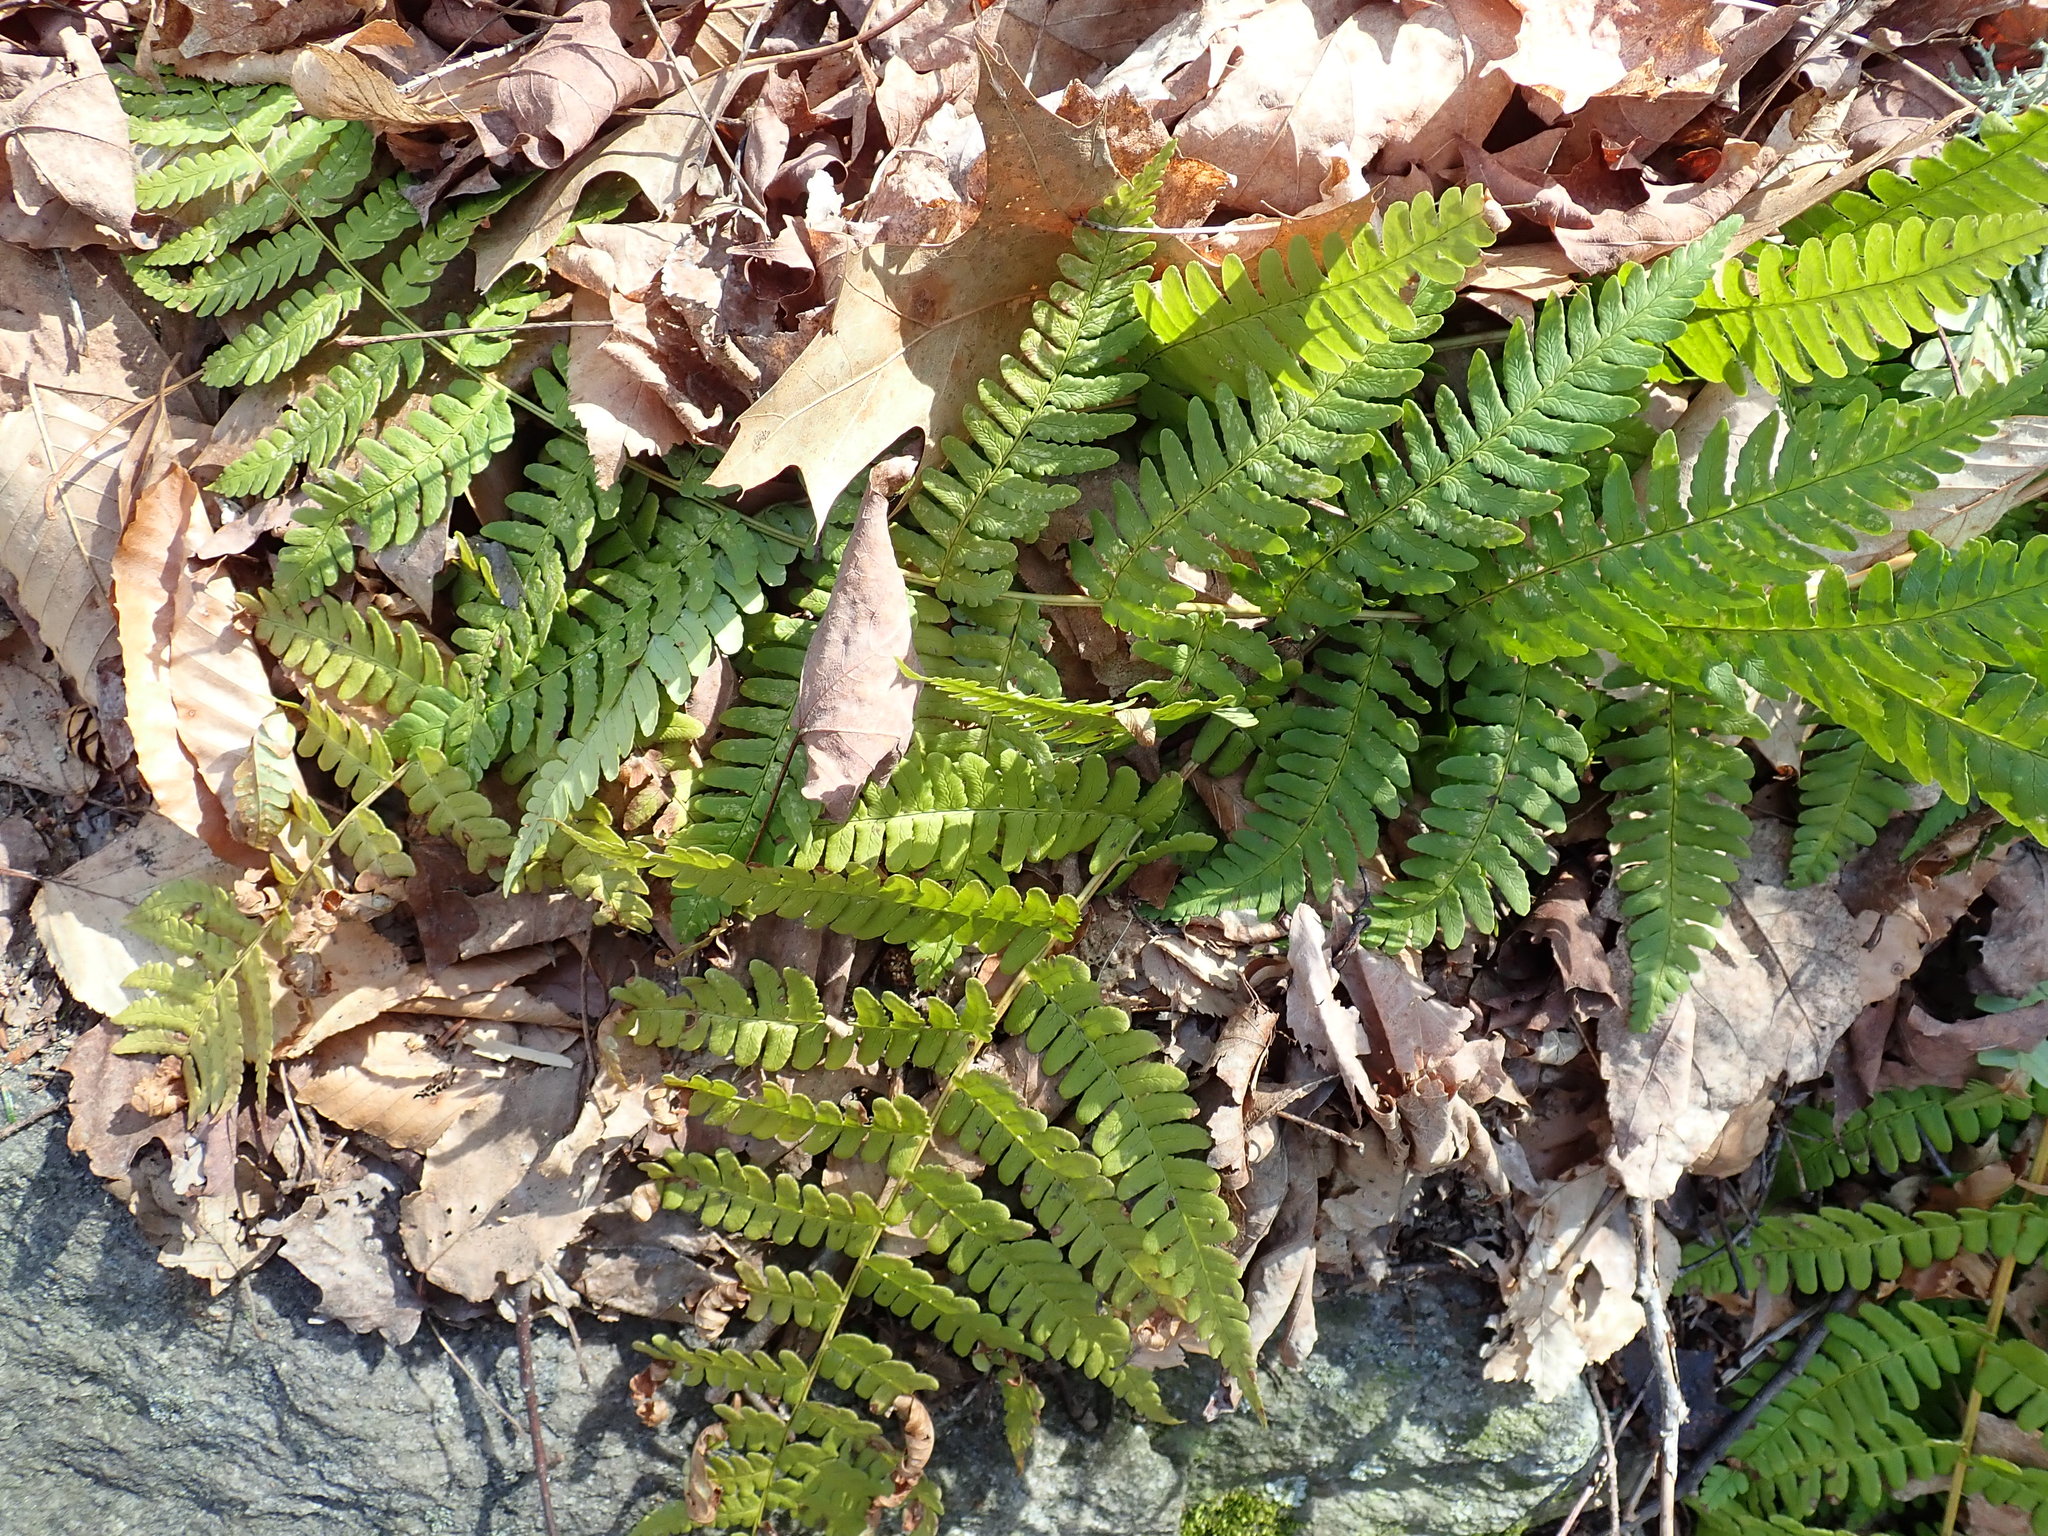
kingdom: Plantae
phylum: Tracheophyta
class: Polypodiopsida
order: Polypodiales
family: Dryopteridaceae
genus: Dryopteris
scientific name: Dryopteris marginalis
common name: Marginal wood fern
